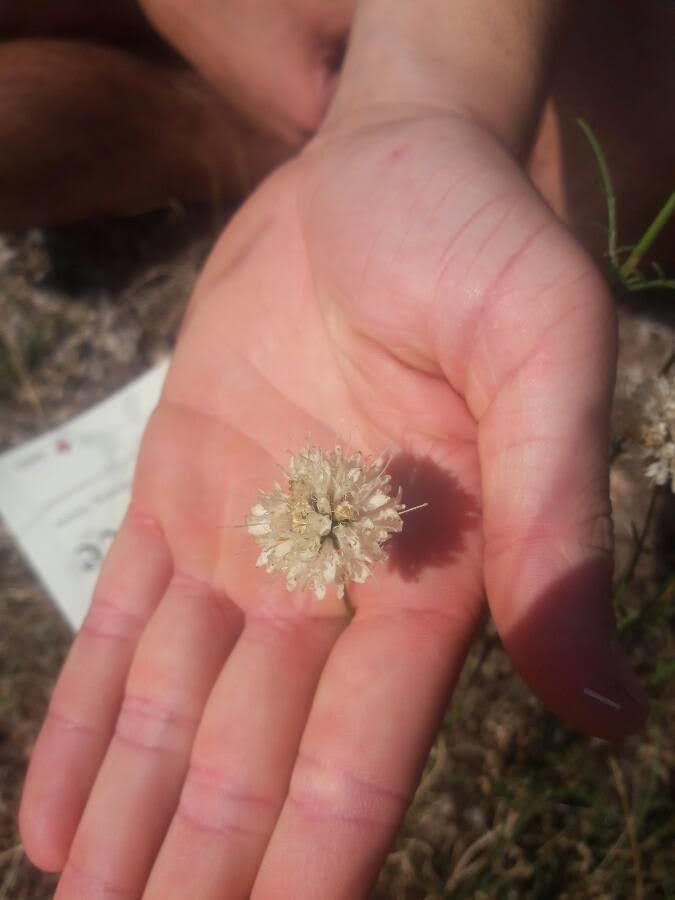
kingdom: Plantae
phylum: Tracheophyta
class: Magnoliopsida
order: Dipsacales
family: Caprifoliaceae
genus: Cephalaria
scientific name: Cephalaria leucantha
